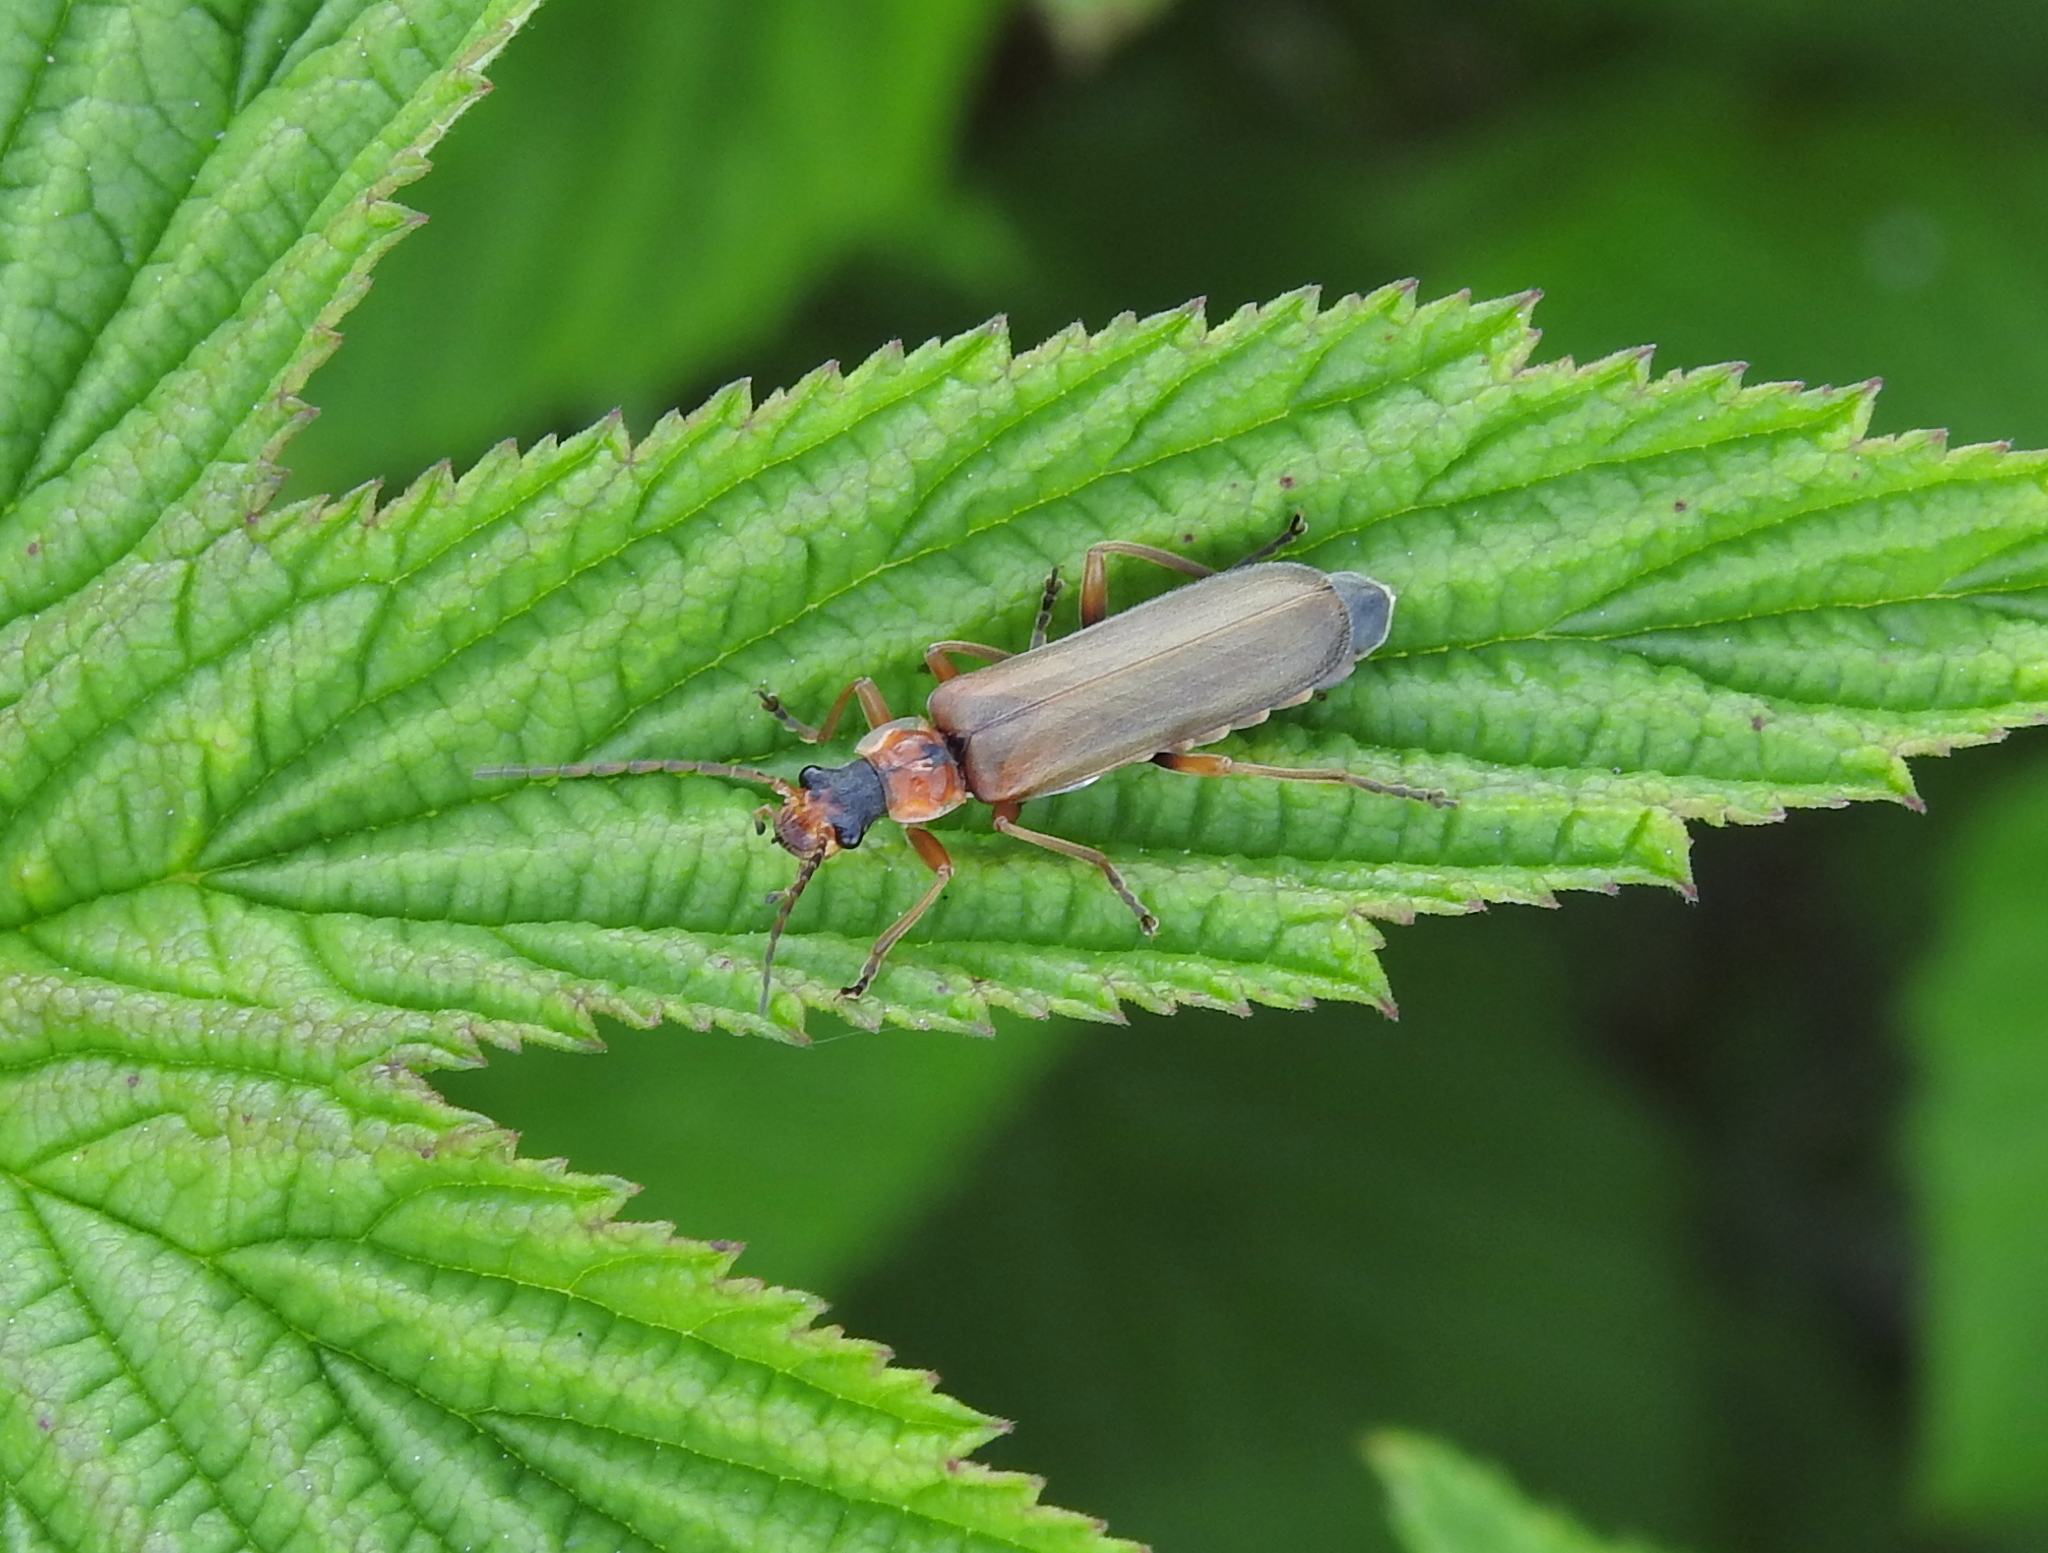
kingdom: Animalia
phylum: Arthropoda
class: Insecta
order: Coleoptera
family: Cantharidae
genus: Podabrus
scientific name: Podabrus alpinus
